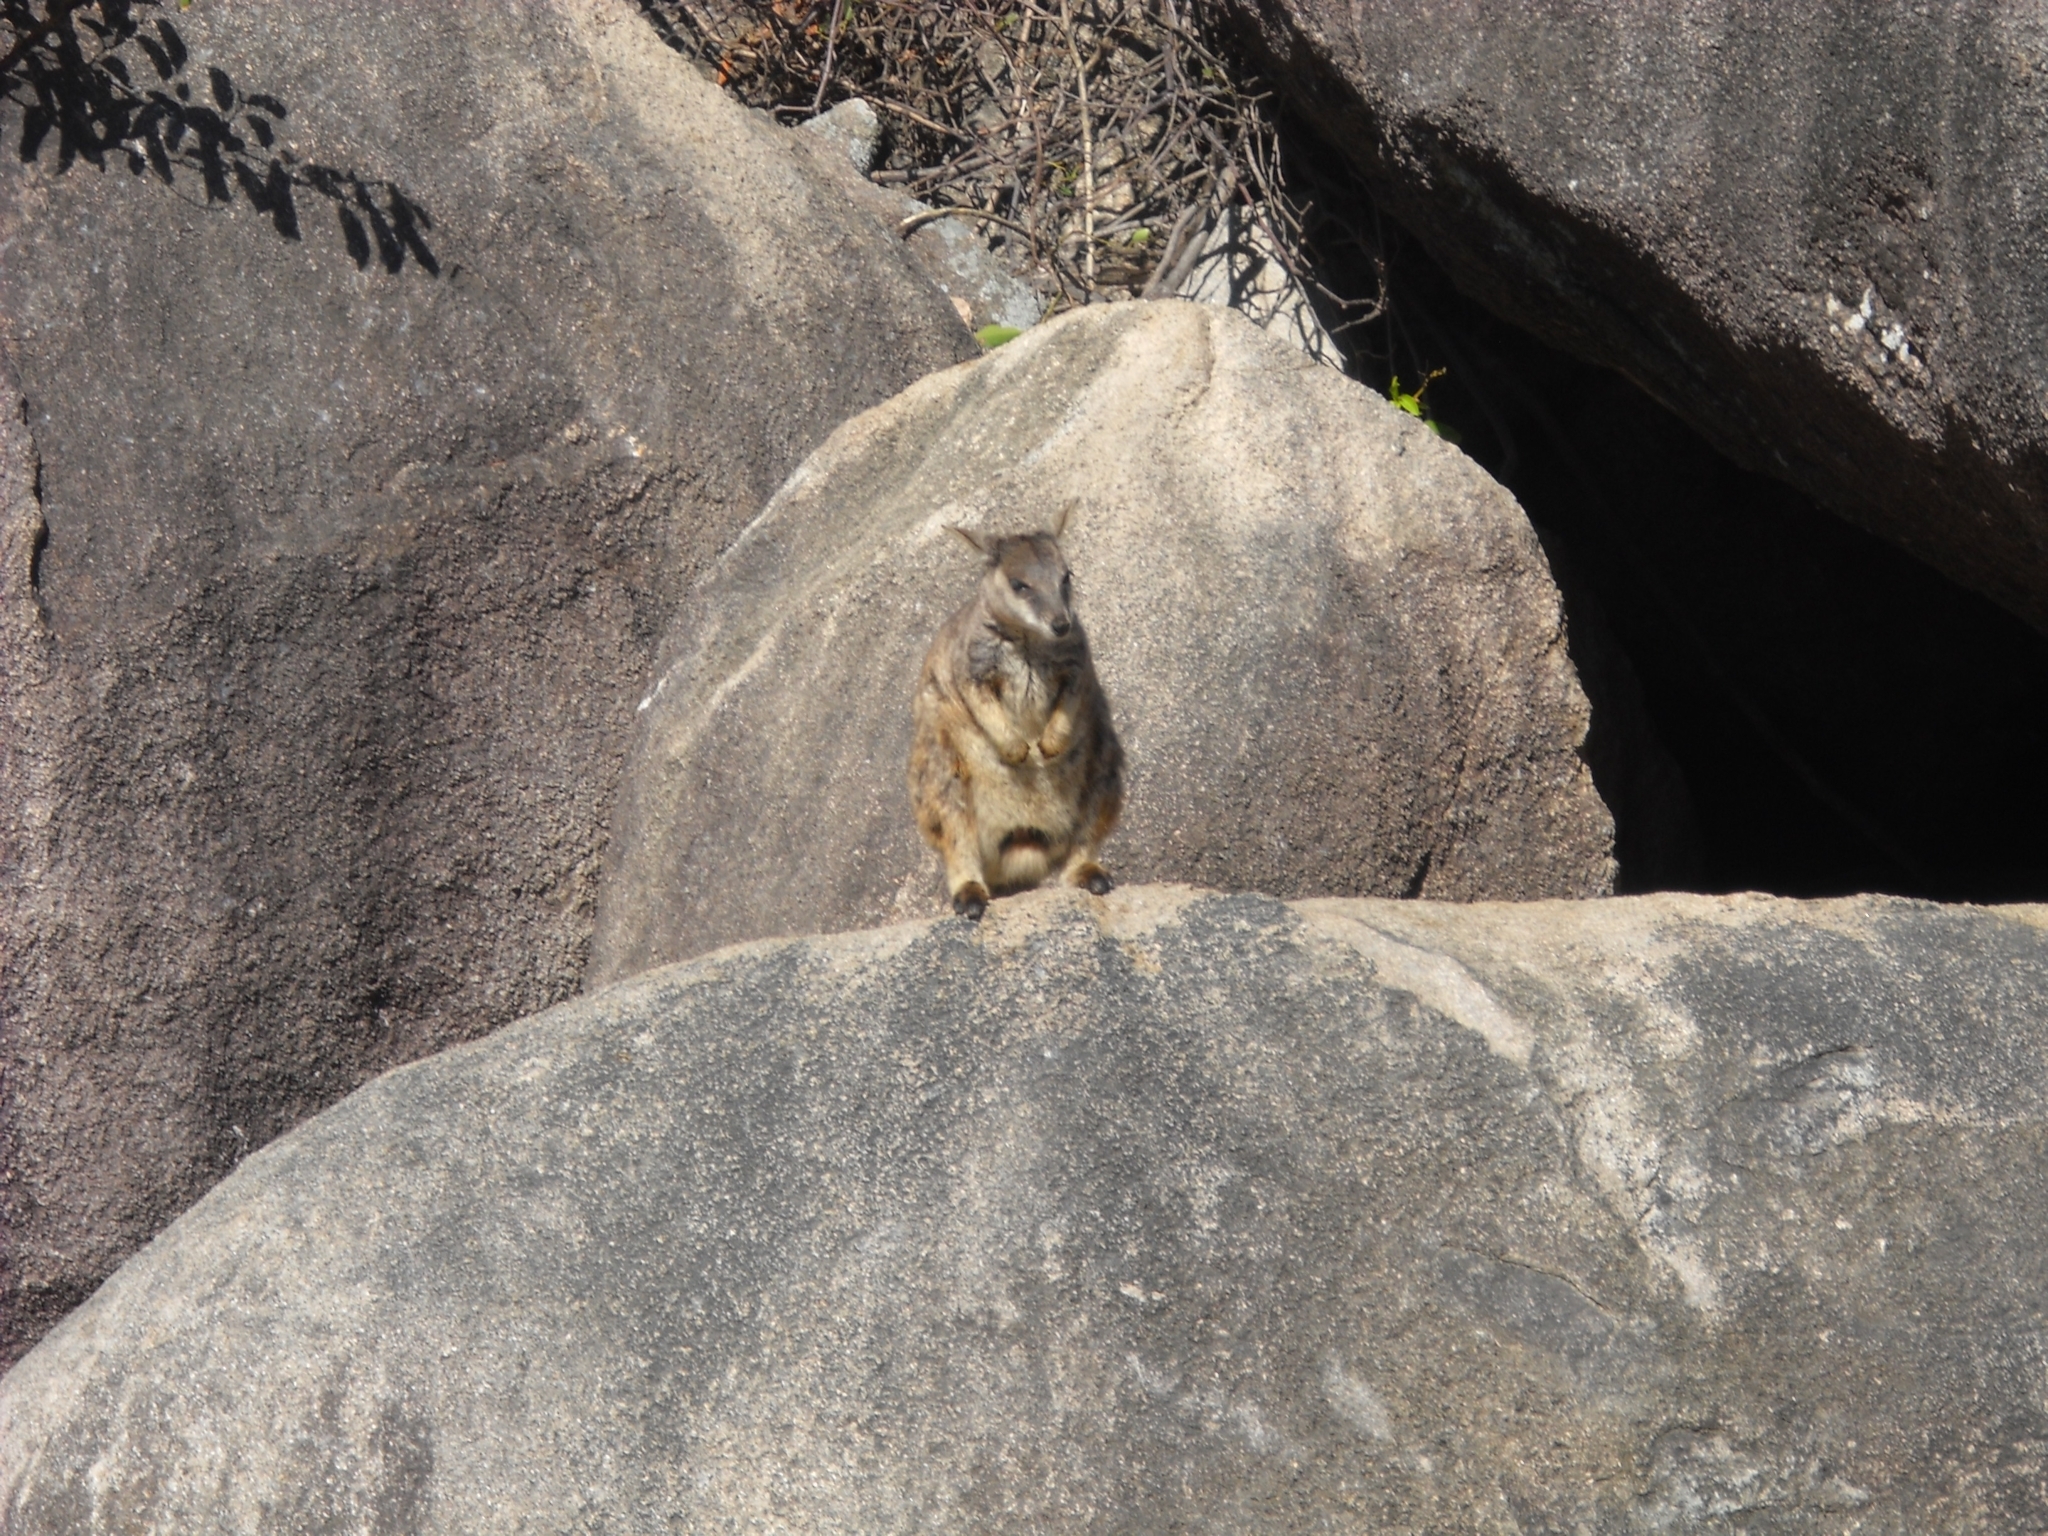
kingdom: Animalia
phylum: Chordata
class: Mammalia
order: Diprotodontia
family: Macropodidae
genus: Petrogale
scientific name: Petrogale assimilis
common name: Allied rock wallaby
